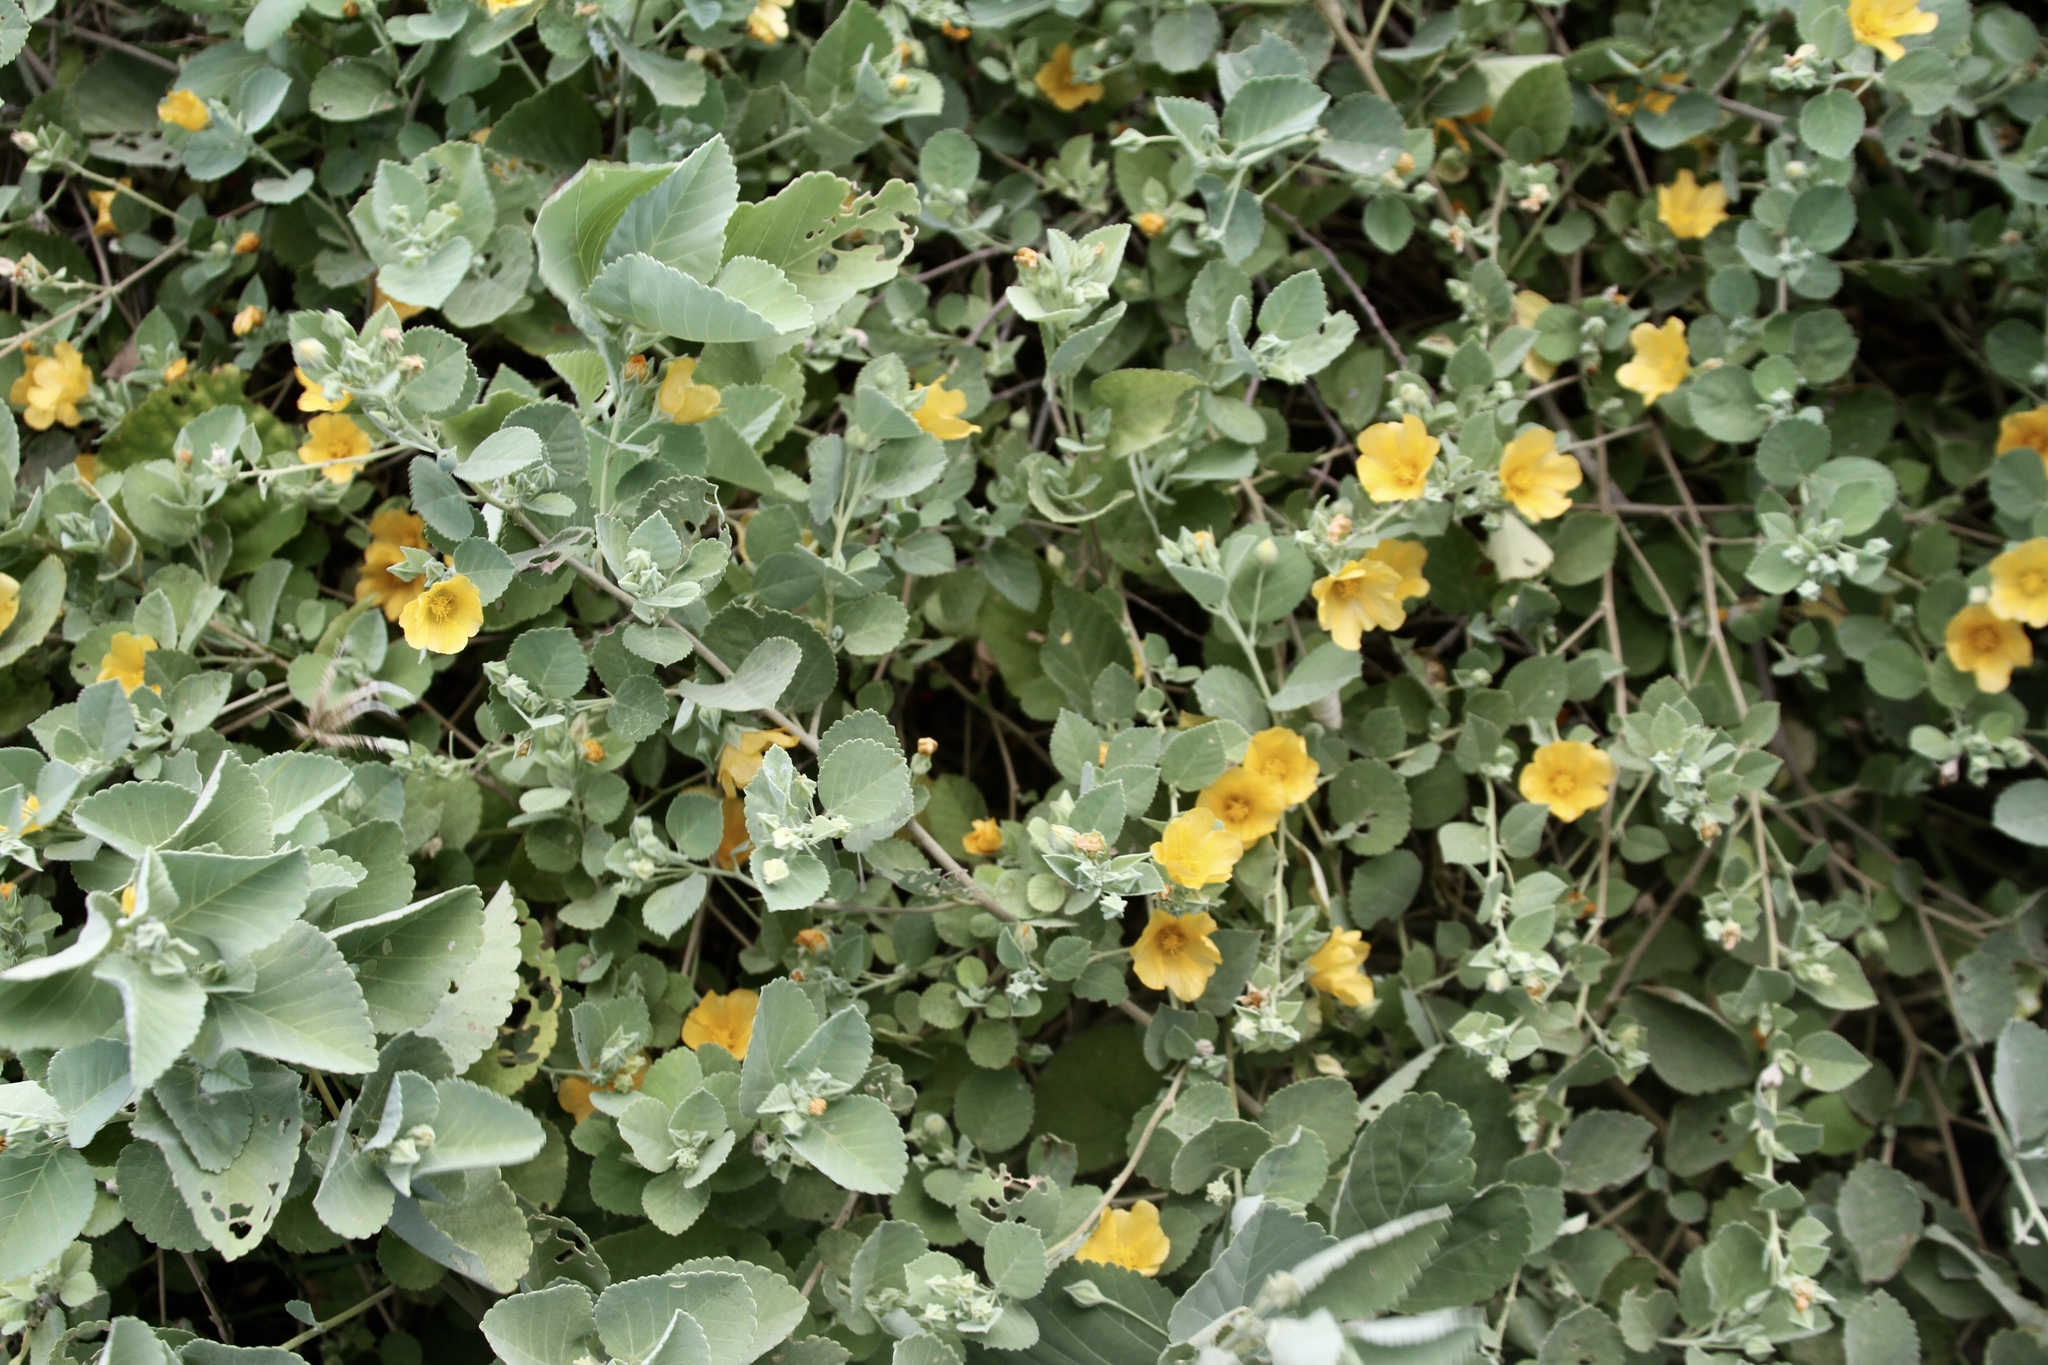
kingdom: Plantae
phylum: Tracheophyta
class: Magnoliopsida
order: Malvales
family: Malvaceae
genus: Sida
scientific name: Sida fallax
